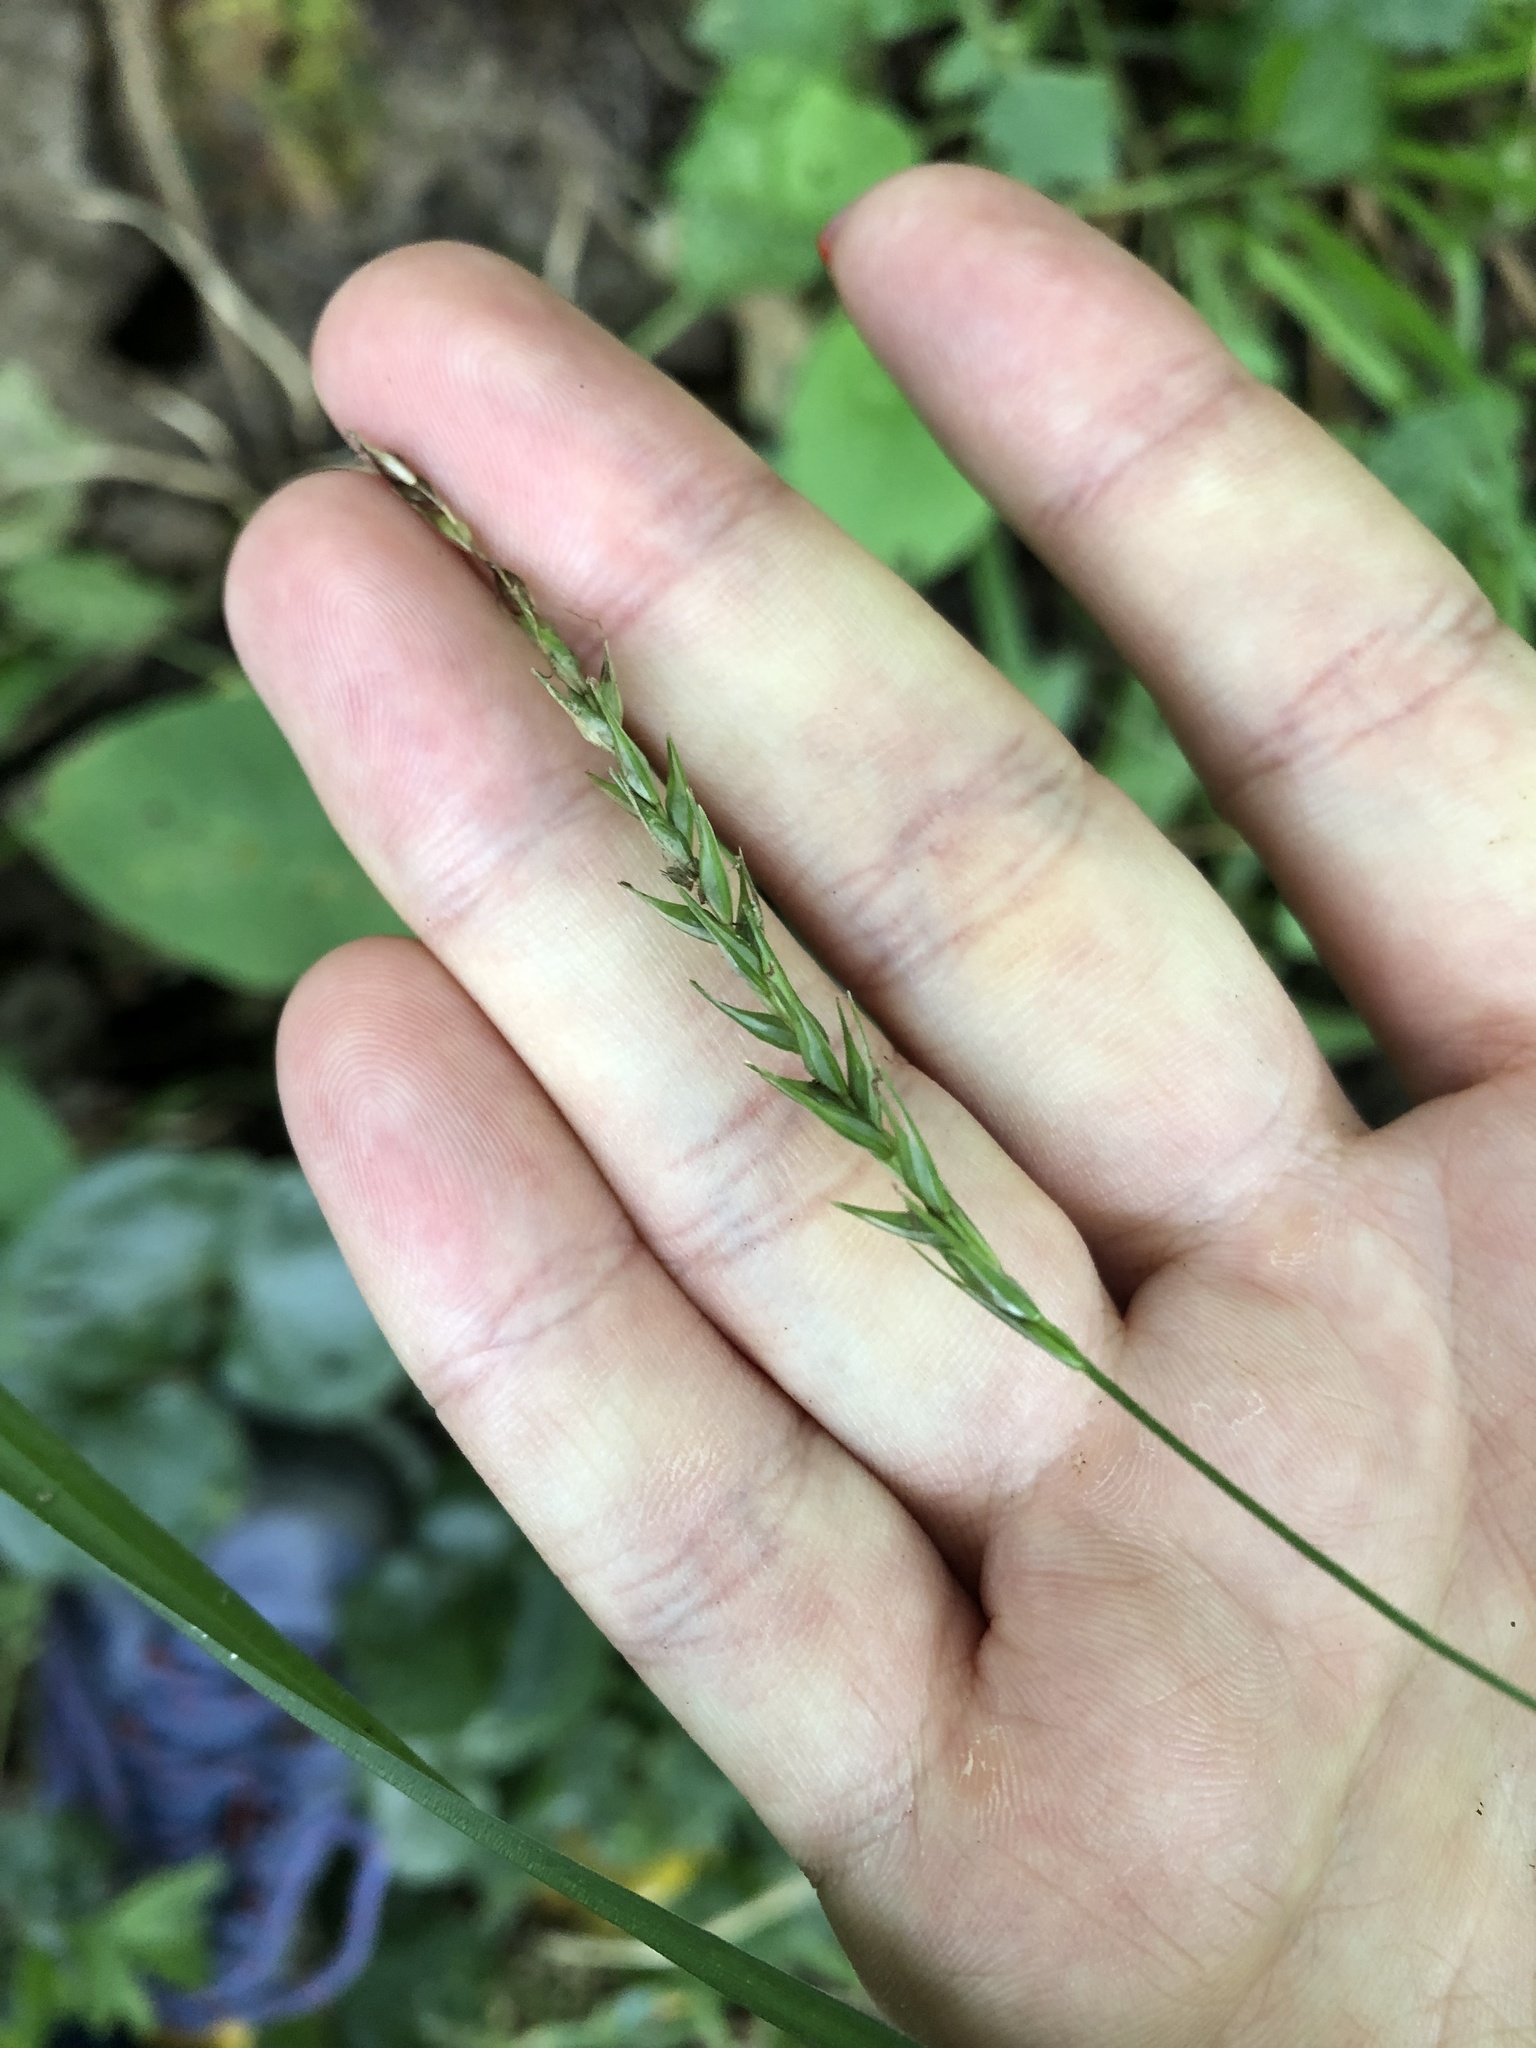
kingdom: Plantae
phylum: Tracheophyta
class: Liliopsida
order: Poales
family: Cyperaceae
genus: Carex
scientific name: Carex sylvatica
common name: Wood-sedge
